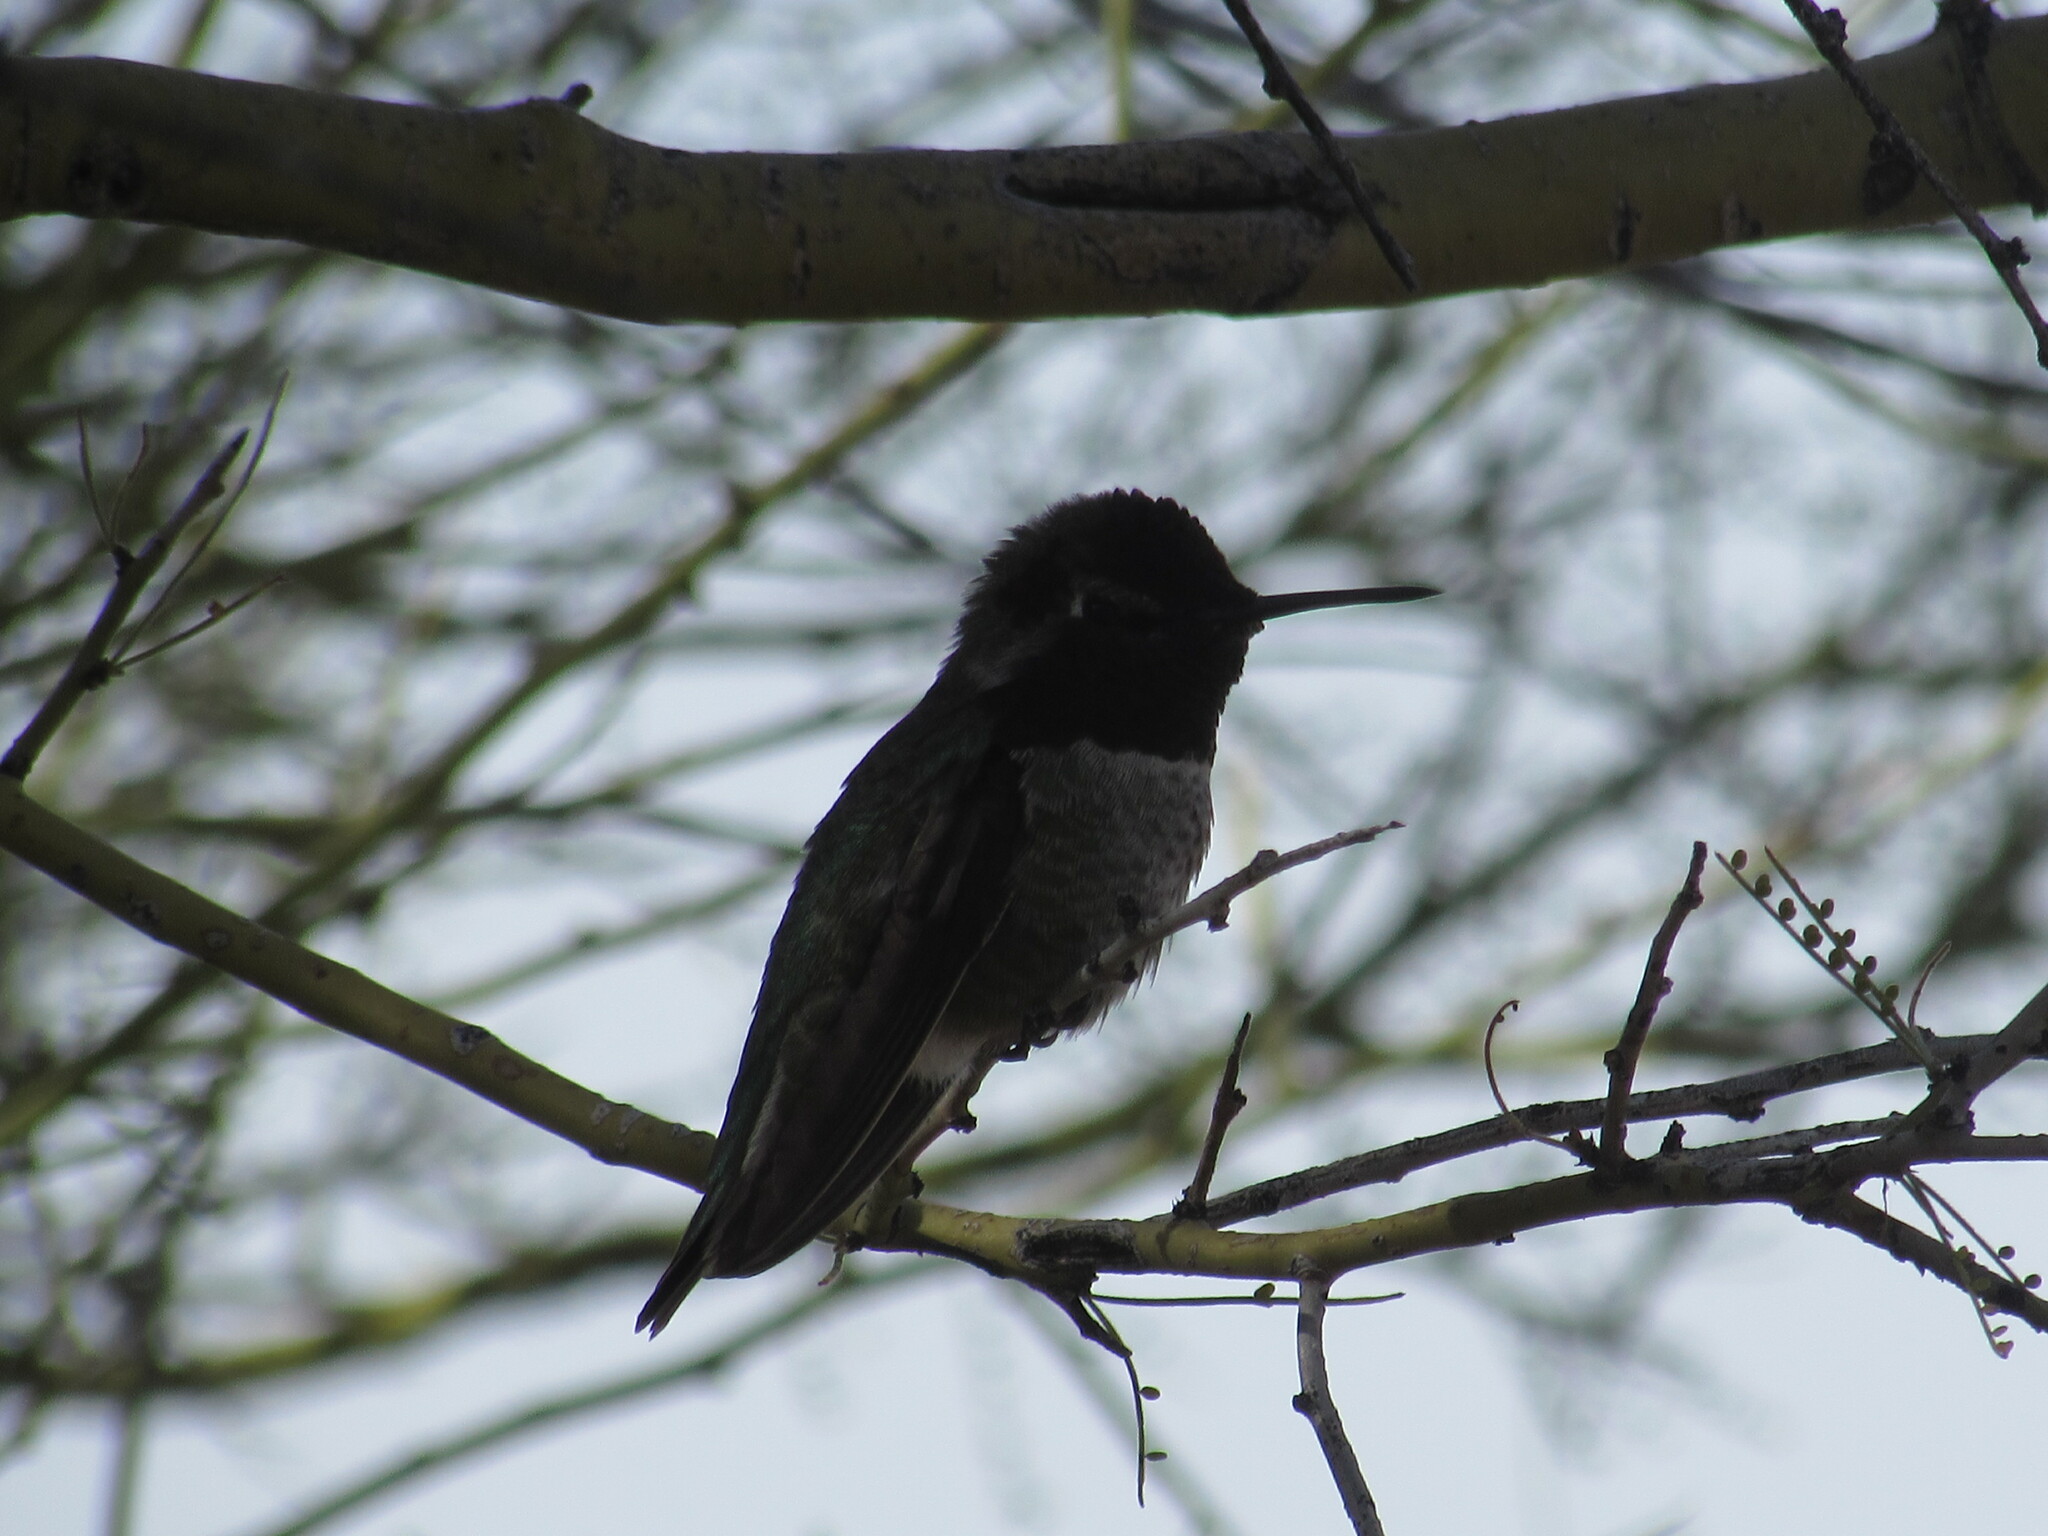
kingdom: Animalia
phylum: Chordata
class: Aves
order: Apodiformes
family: Trochilidae
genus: Calypte
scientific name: Calypte anna
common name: Anna's hummingbird
